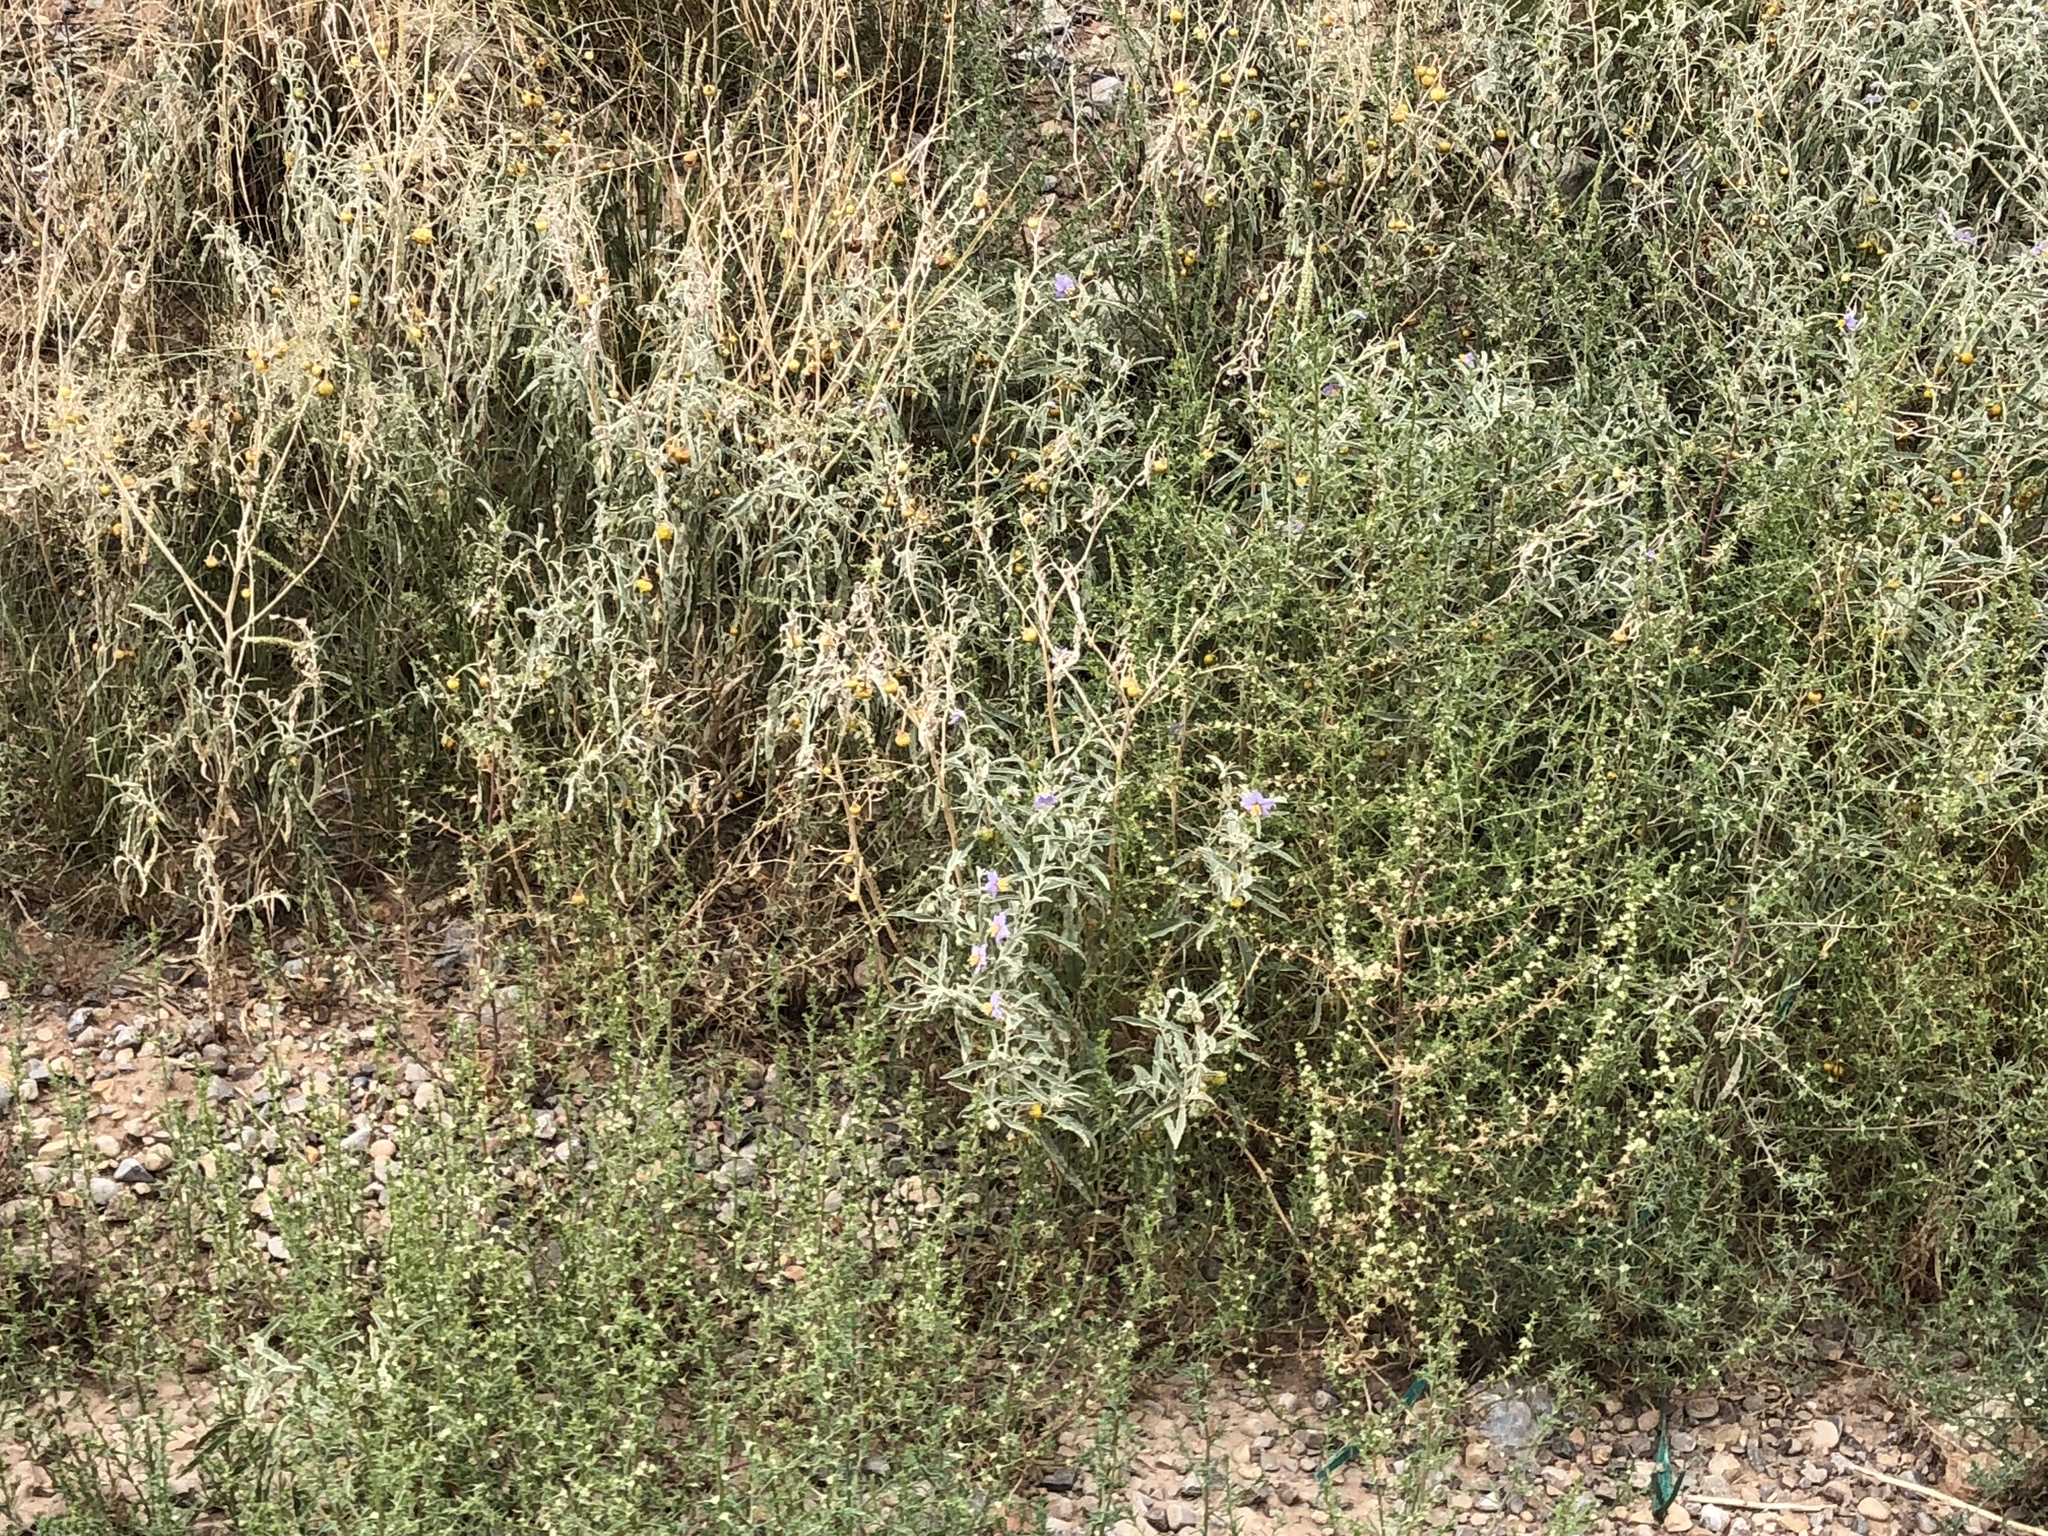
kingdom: Plantae
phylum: Tracheophyta
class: Magnoliopsida
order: Solanales
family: Solanaceae
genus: Solanum
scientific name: Solanum elaeagnifolium
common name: Silverleaf nightshade
